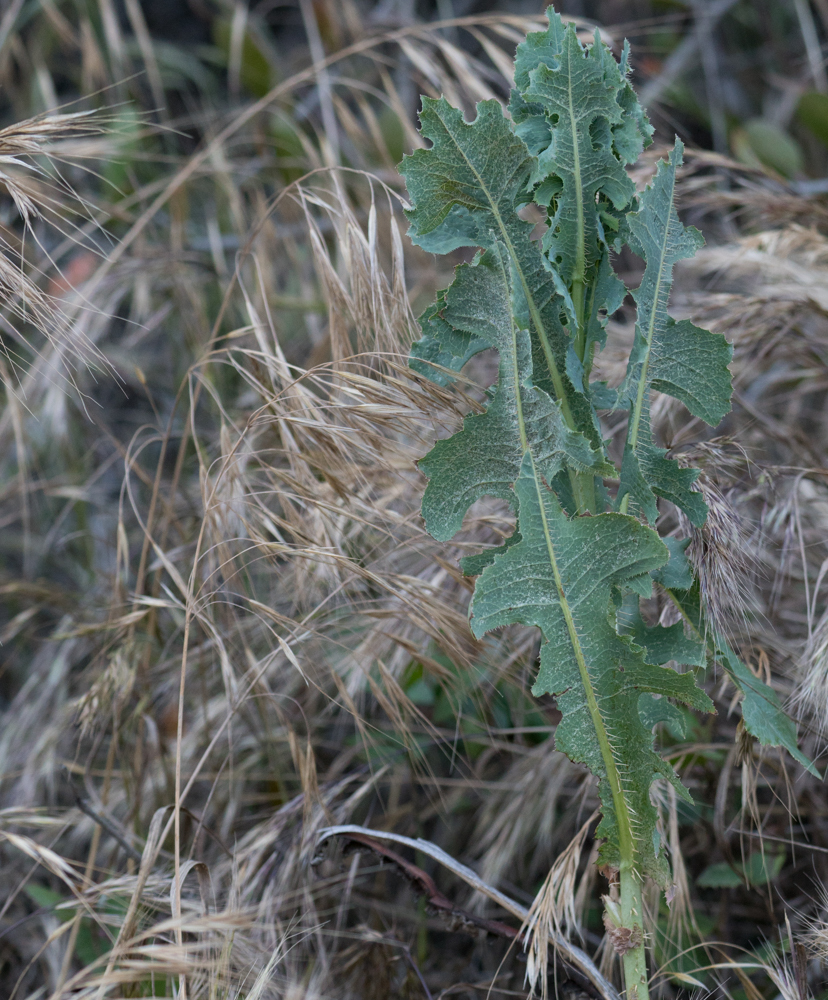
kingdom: Plantae
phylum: Tracheophyta
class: Magnoliopsida
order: Asterales
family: Asteraceae
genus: Lactuca
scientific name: Lactuca serriola
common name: Prickly lettuce
